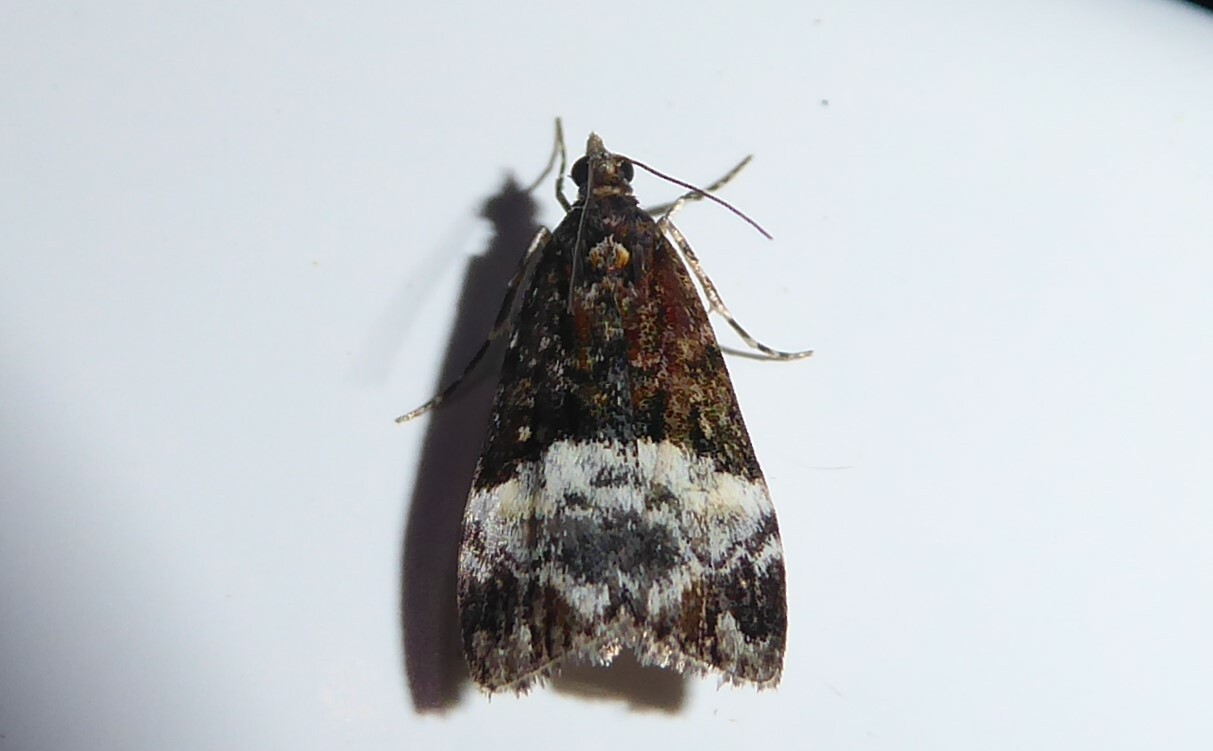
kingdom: Animalia
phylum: Arthropoda
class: Insecta
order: Lepidoptera
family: Crambidae
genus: Scoparia
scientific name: Scoparia minusculalis
